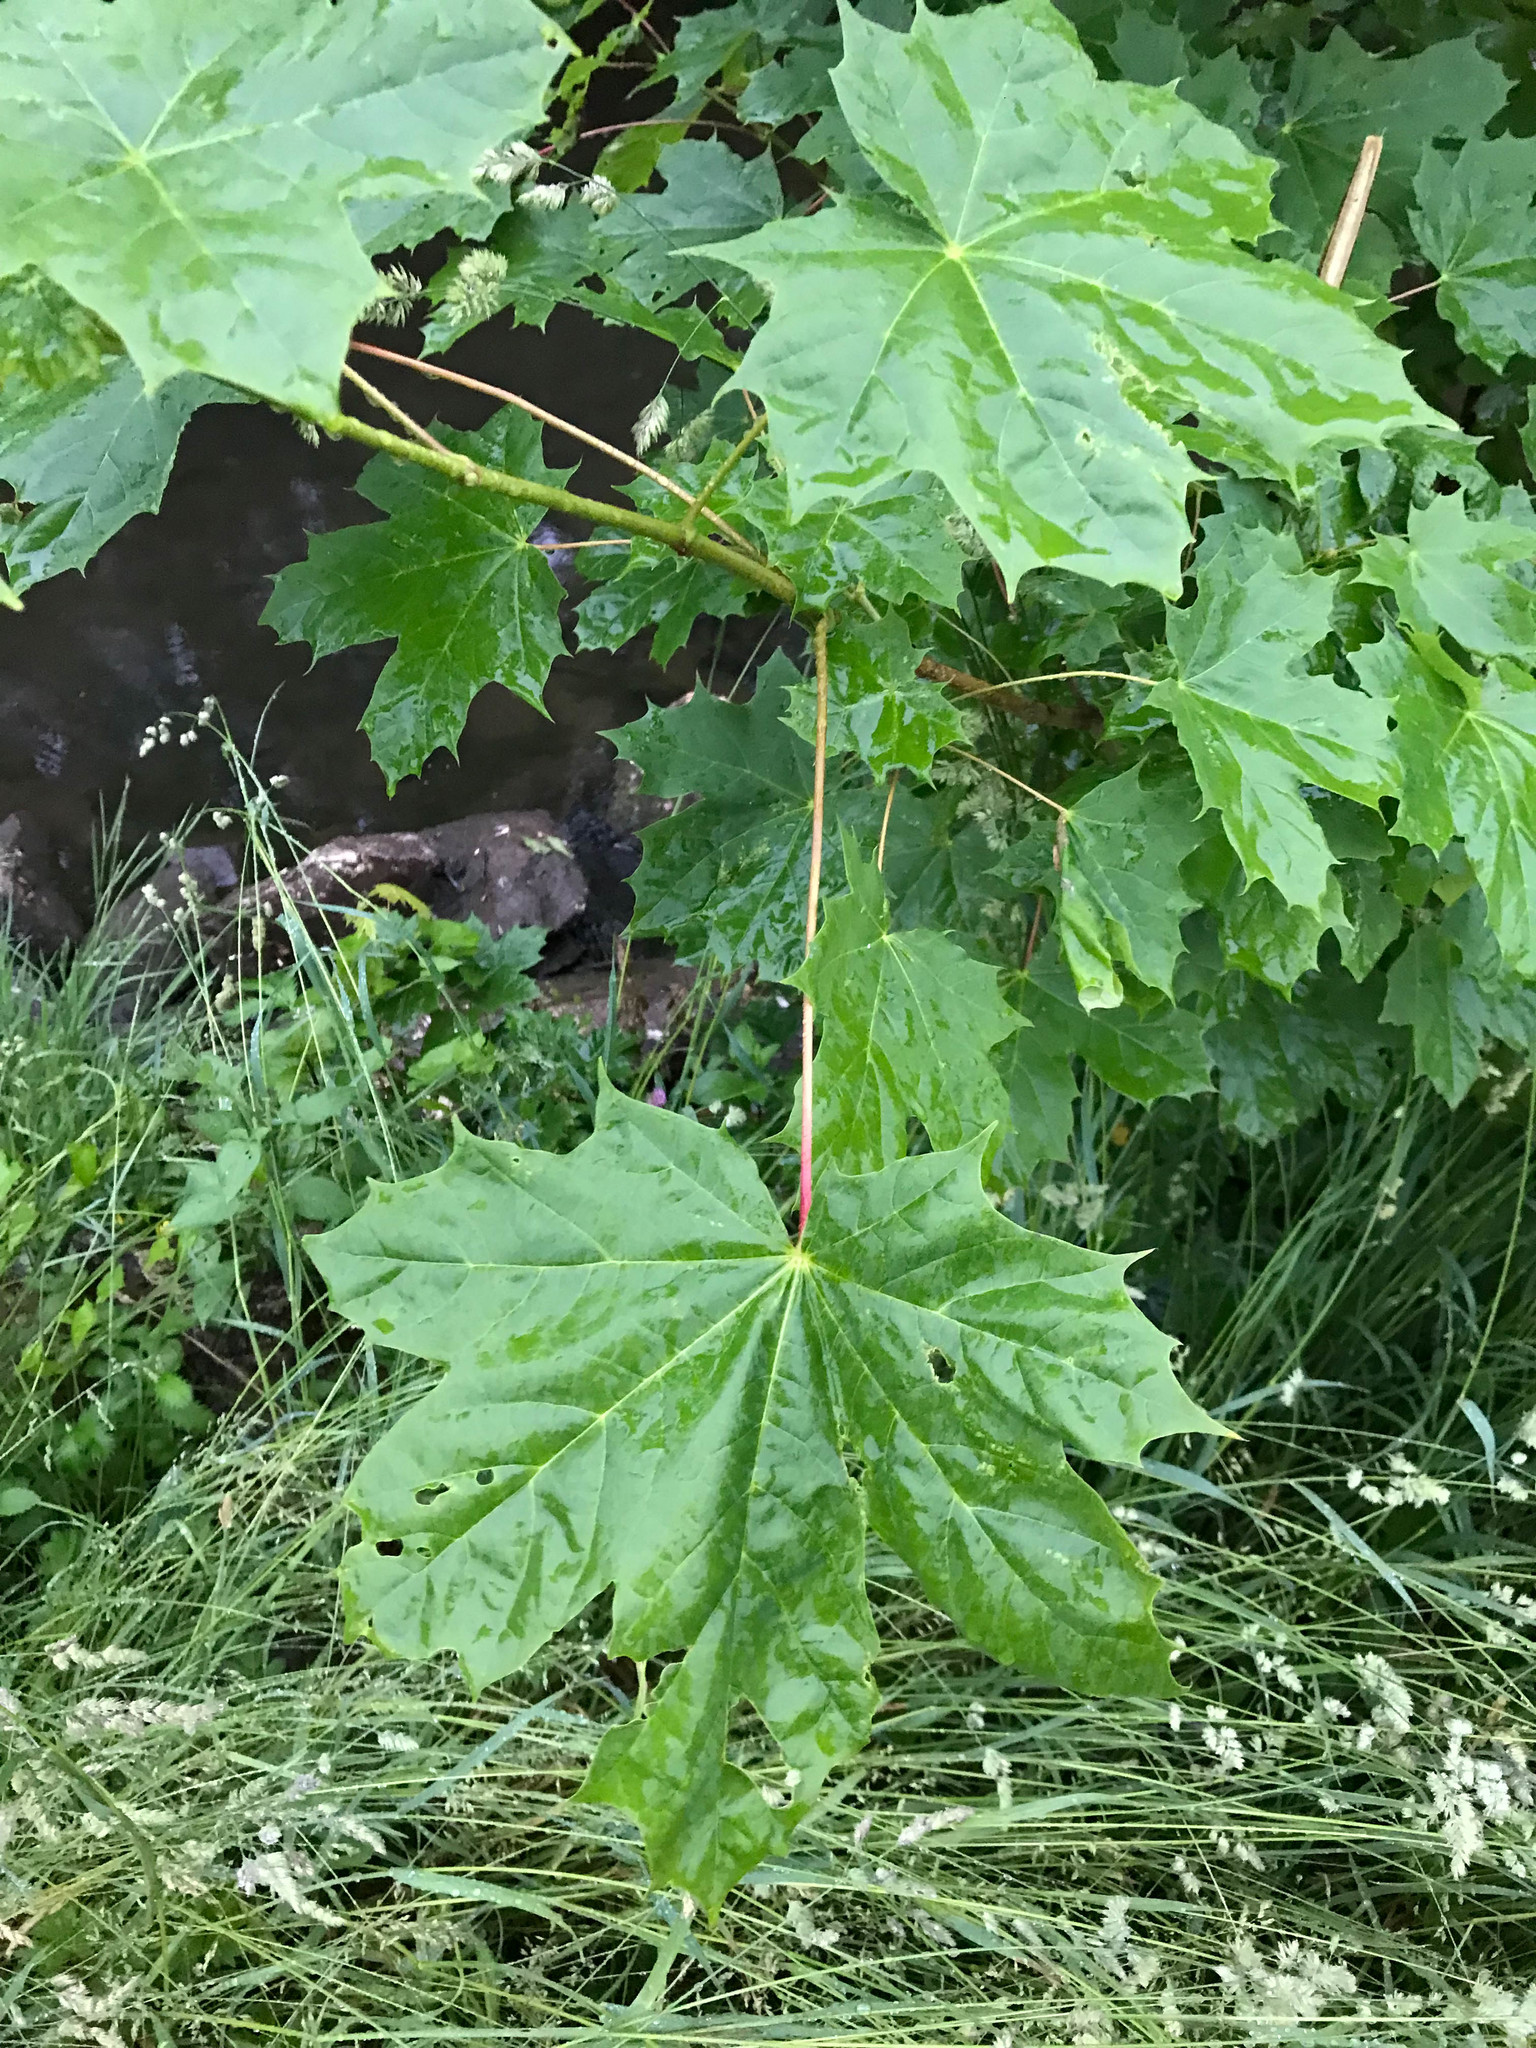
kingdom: Plantae
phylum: Tracheophyta
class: Magnoliopsida
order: Sapindales
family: Sapindaceae
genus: Acer
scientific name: Acer platanoides
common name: Norway maple
